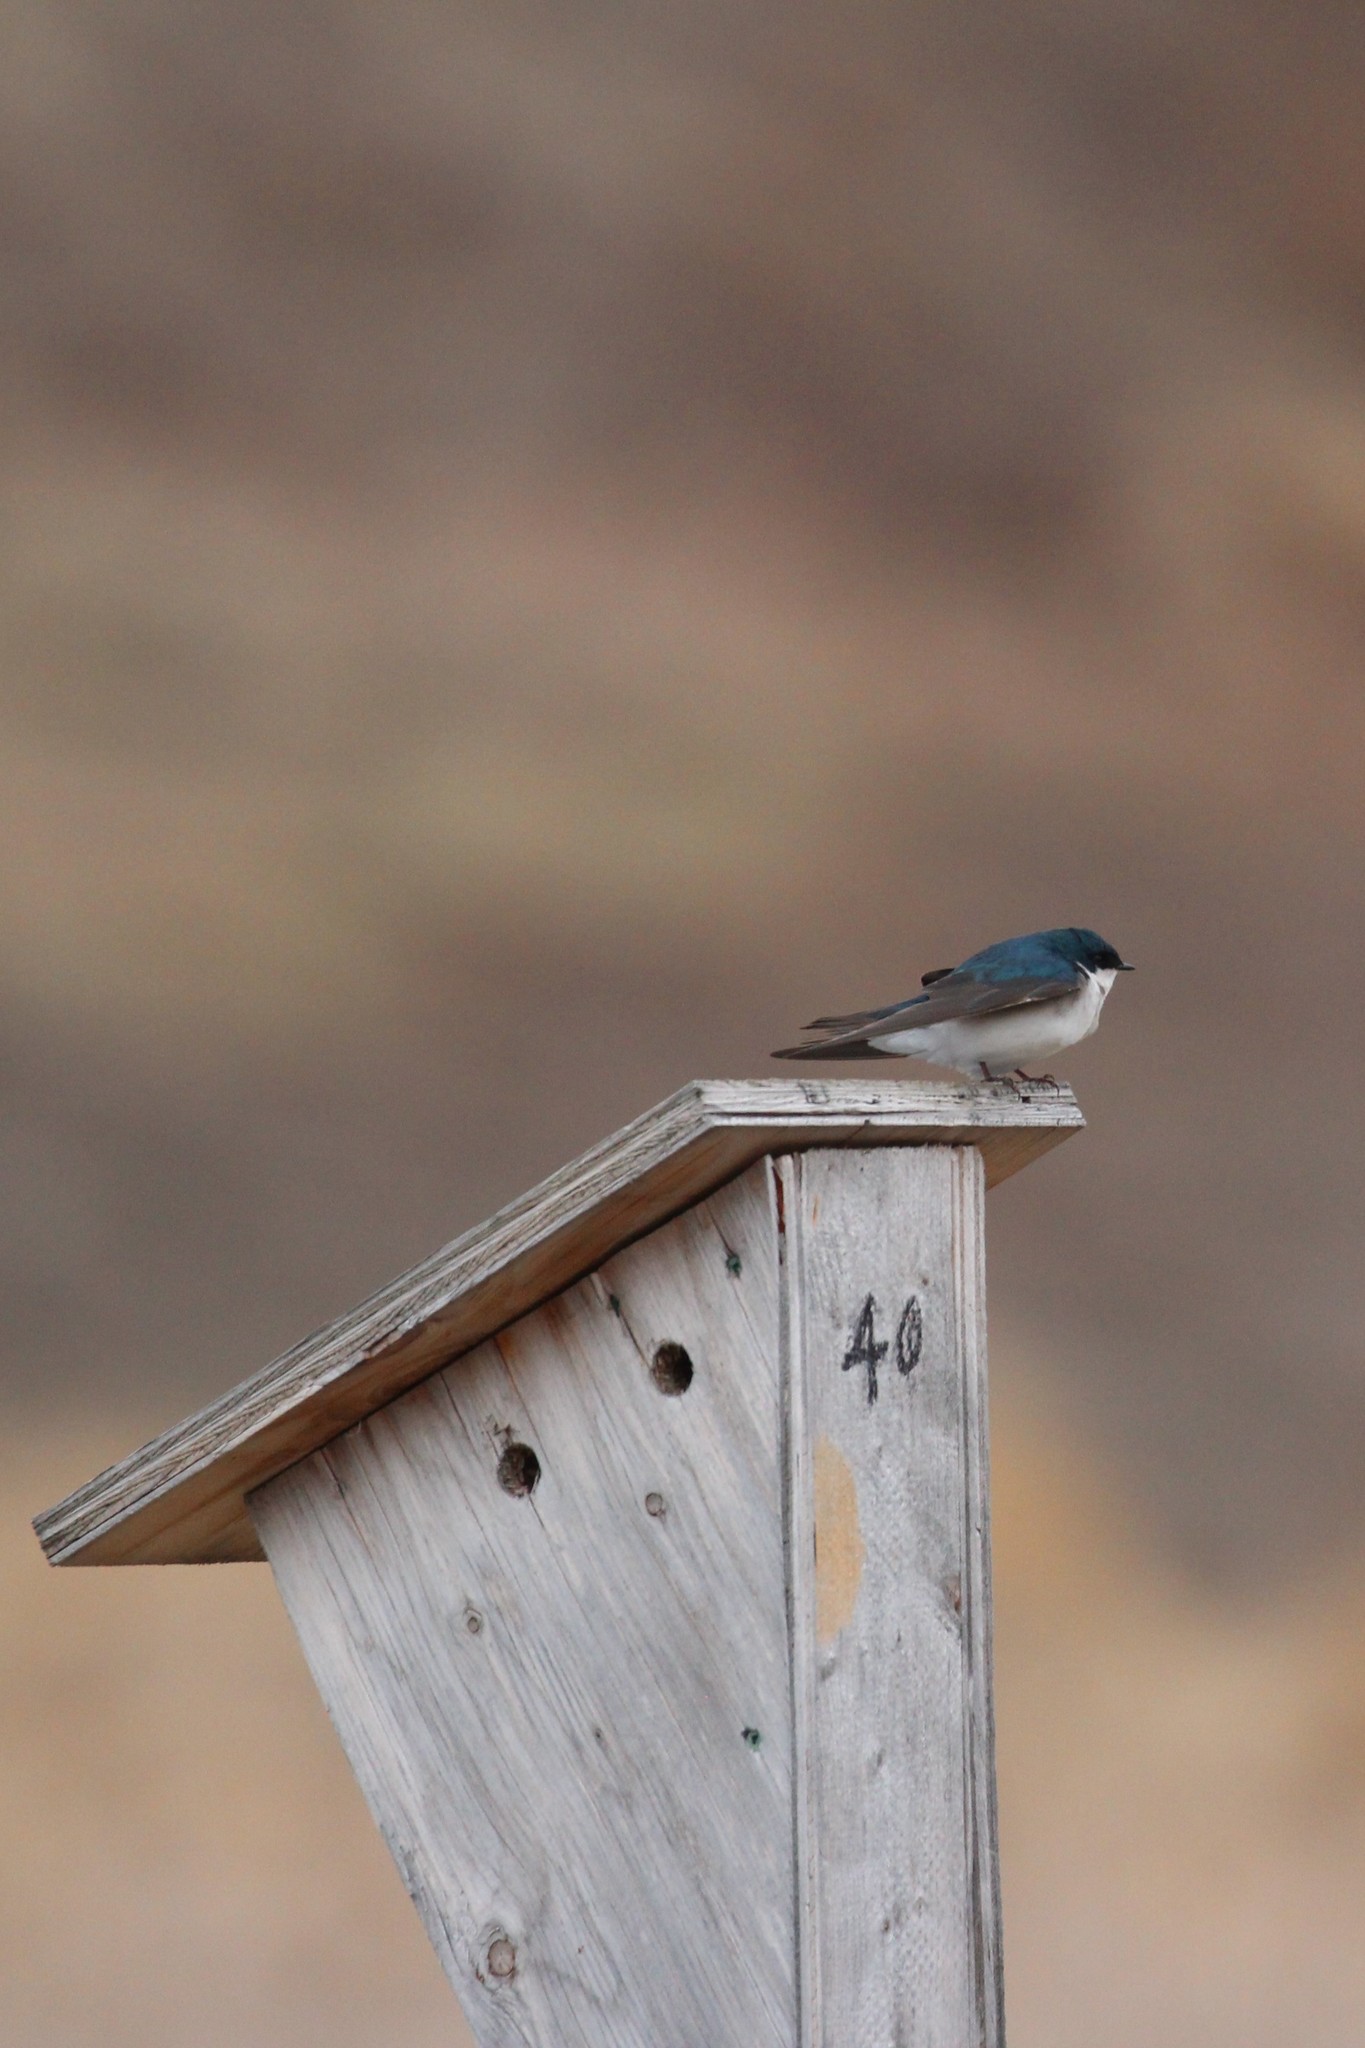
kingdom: Animalia
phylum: Chordata
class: Aves
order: Passeriformes
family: Hirundinidae
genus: Tachycineta
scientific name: Tachycineta bicolor
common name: Tree swallow
